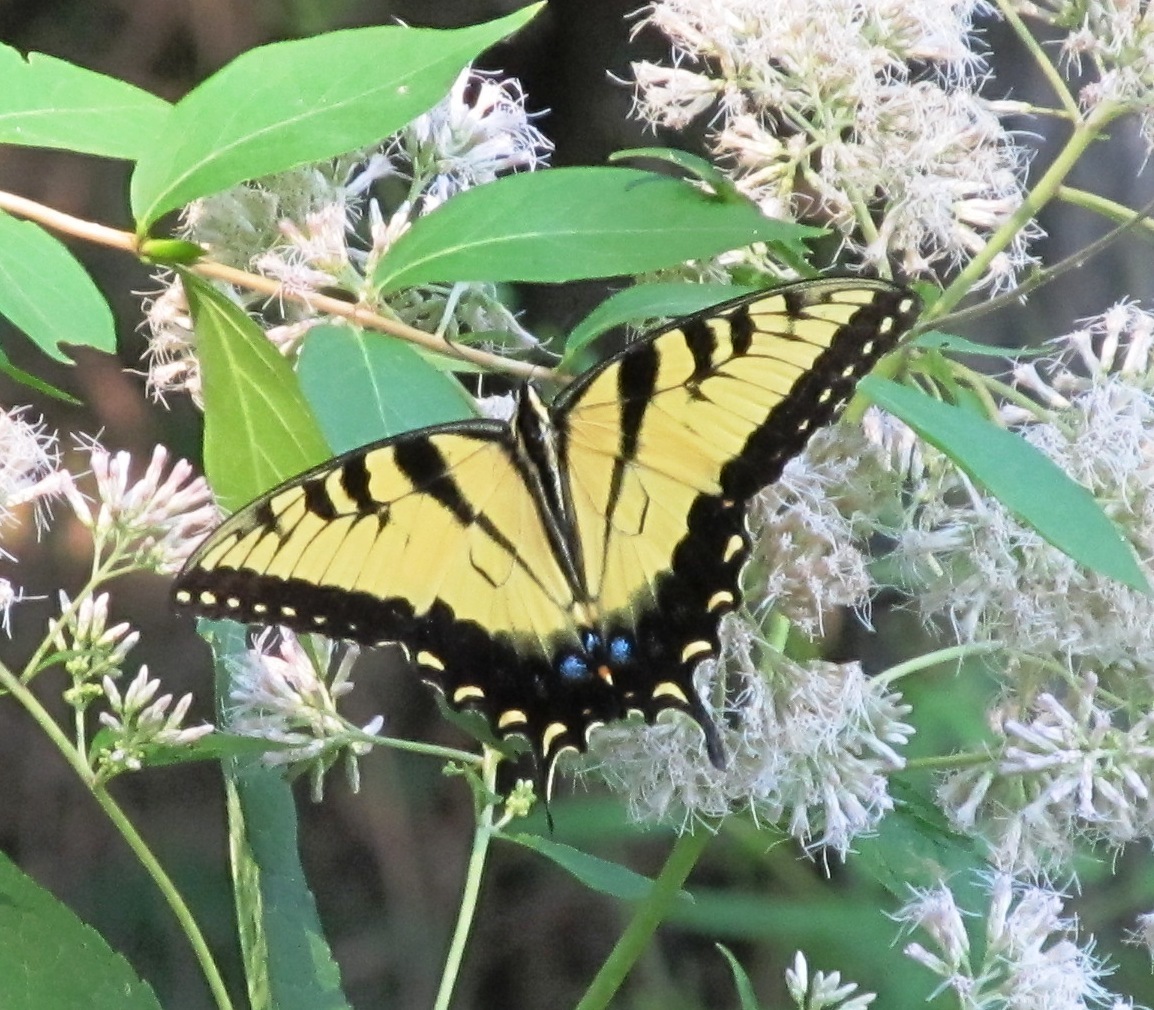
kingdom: Animalia
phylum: Arthropoda
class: Insecta
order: Lepidoptera
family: Papilionidae
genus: Papilio
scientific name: Papilio glaucus
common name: Tiger swallowtail
